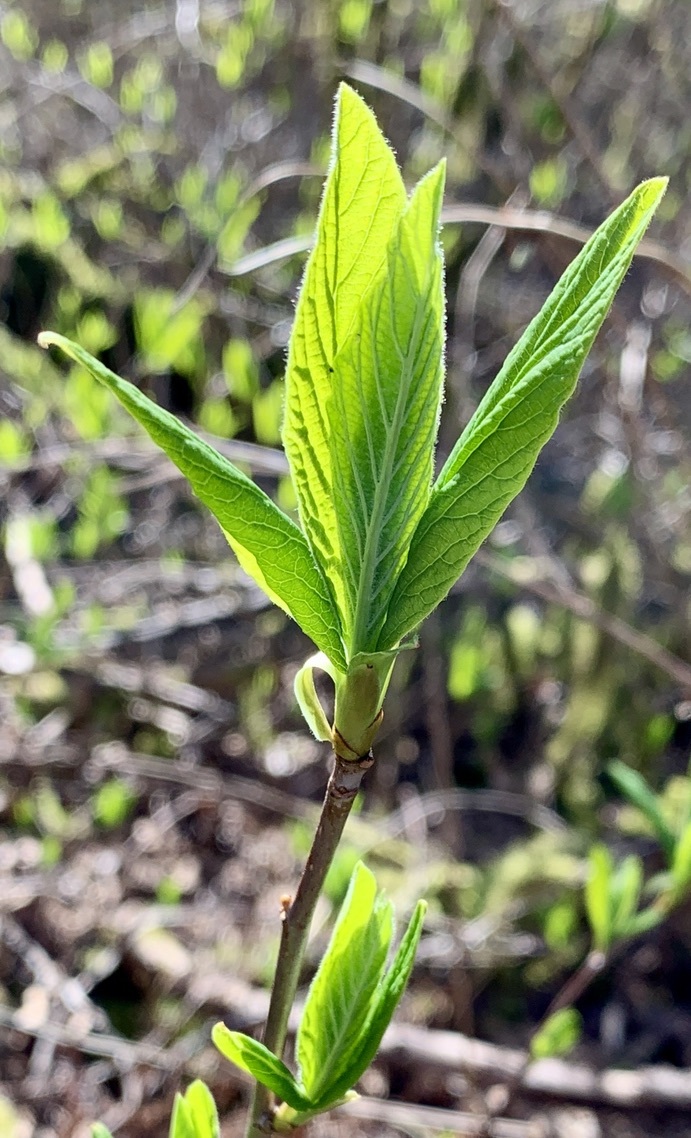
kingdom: Plantae
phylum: Tracheophyta
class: Magnoliopsida
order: Rosales
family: Rosaceae
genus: Oemleria
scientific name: Oemleria cerasiformis
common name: Osoberry
